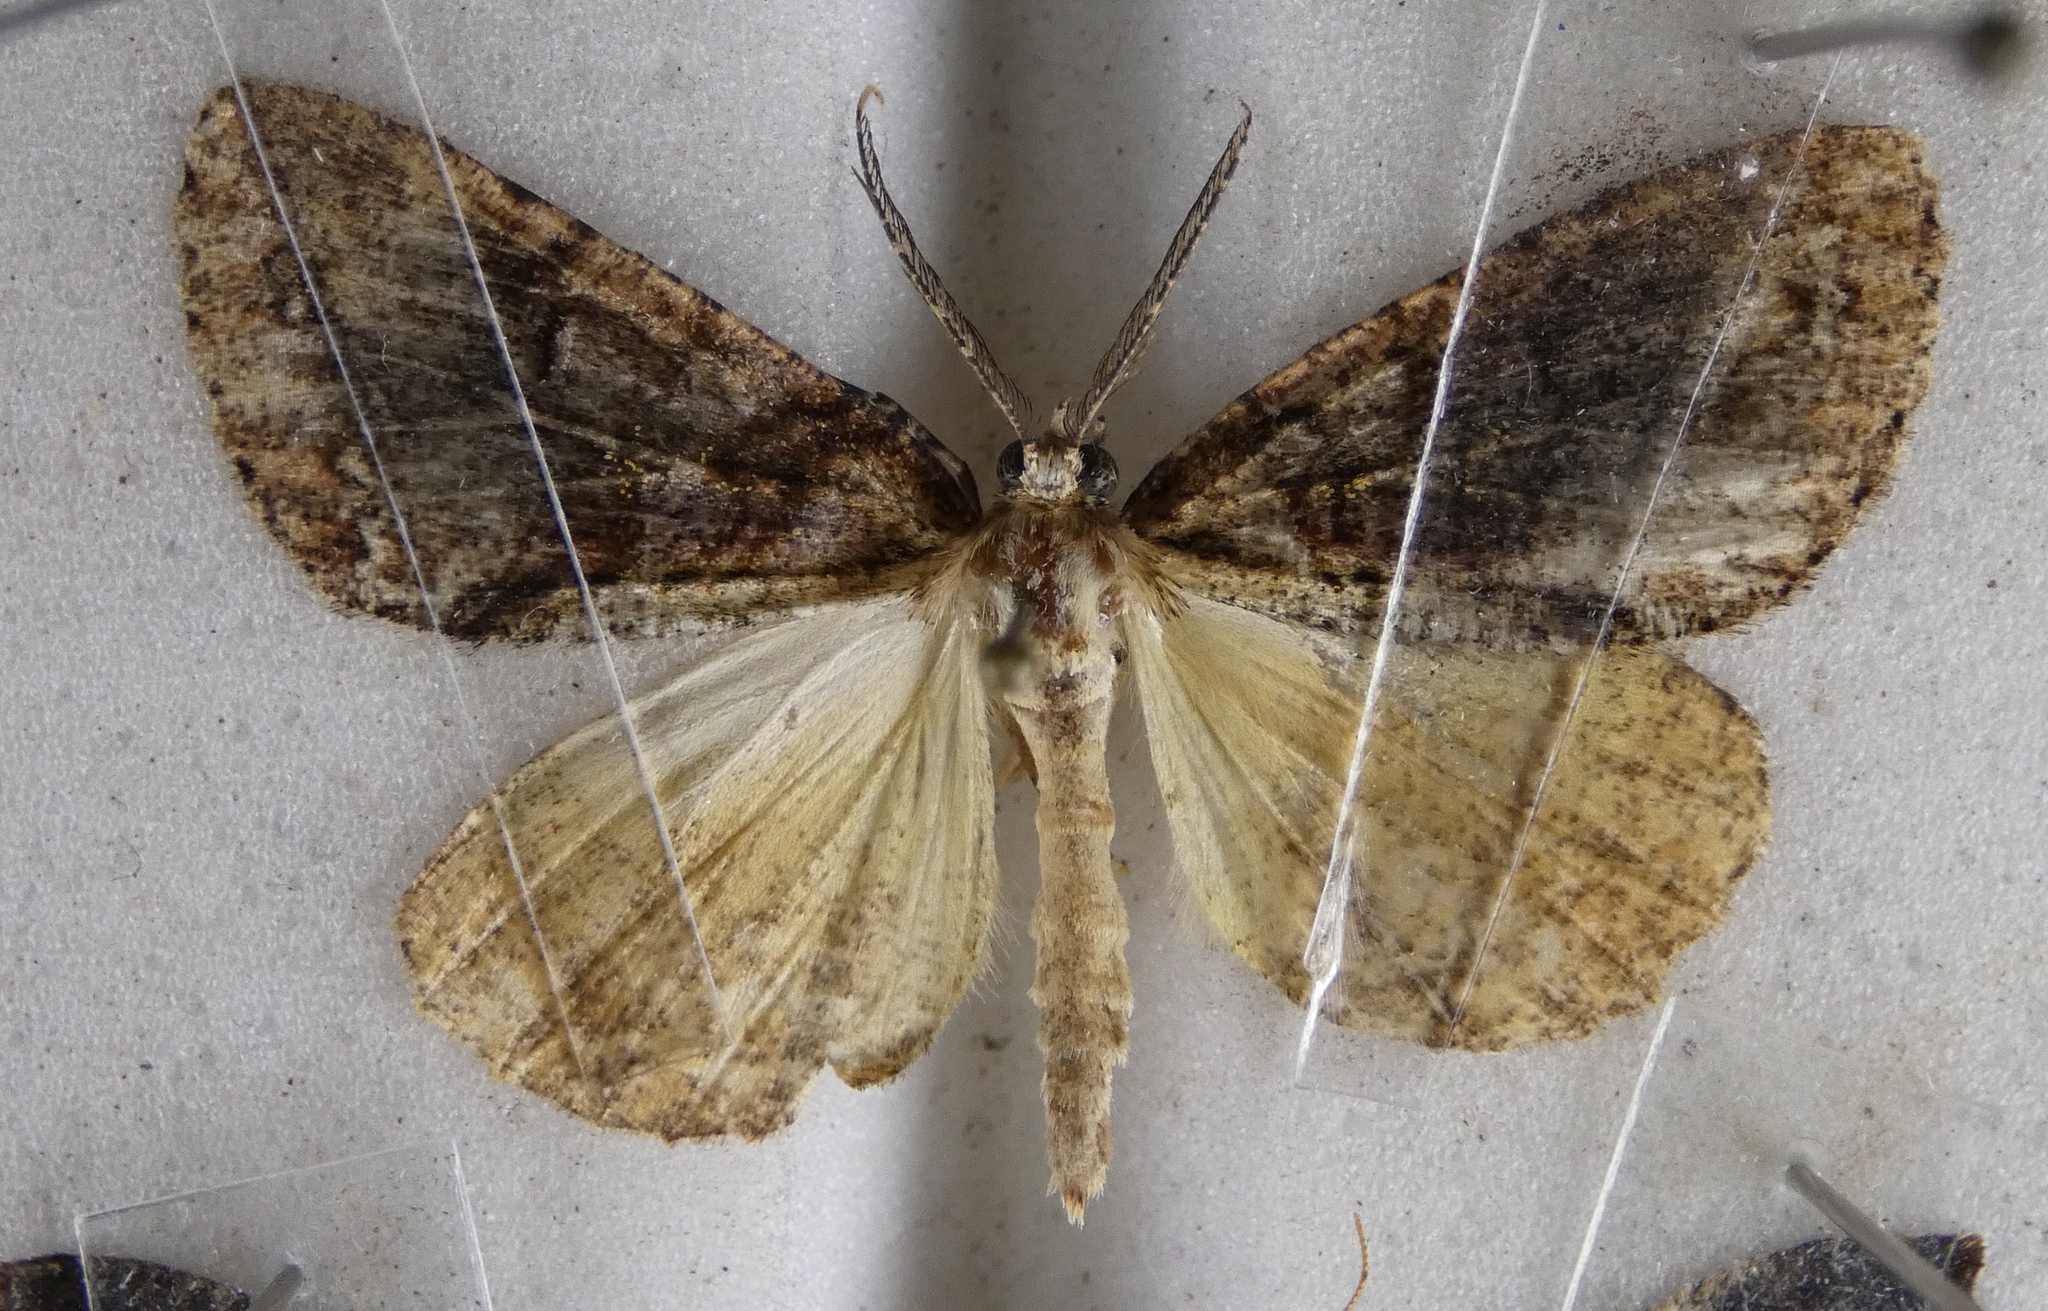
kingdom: Animalia
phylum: Arthropoda
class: Insecta
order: Lepidoptera
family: Geometridae
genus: Pseudocoremia
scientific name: Pseudocoremia suavis
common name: Common forest looper
